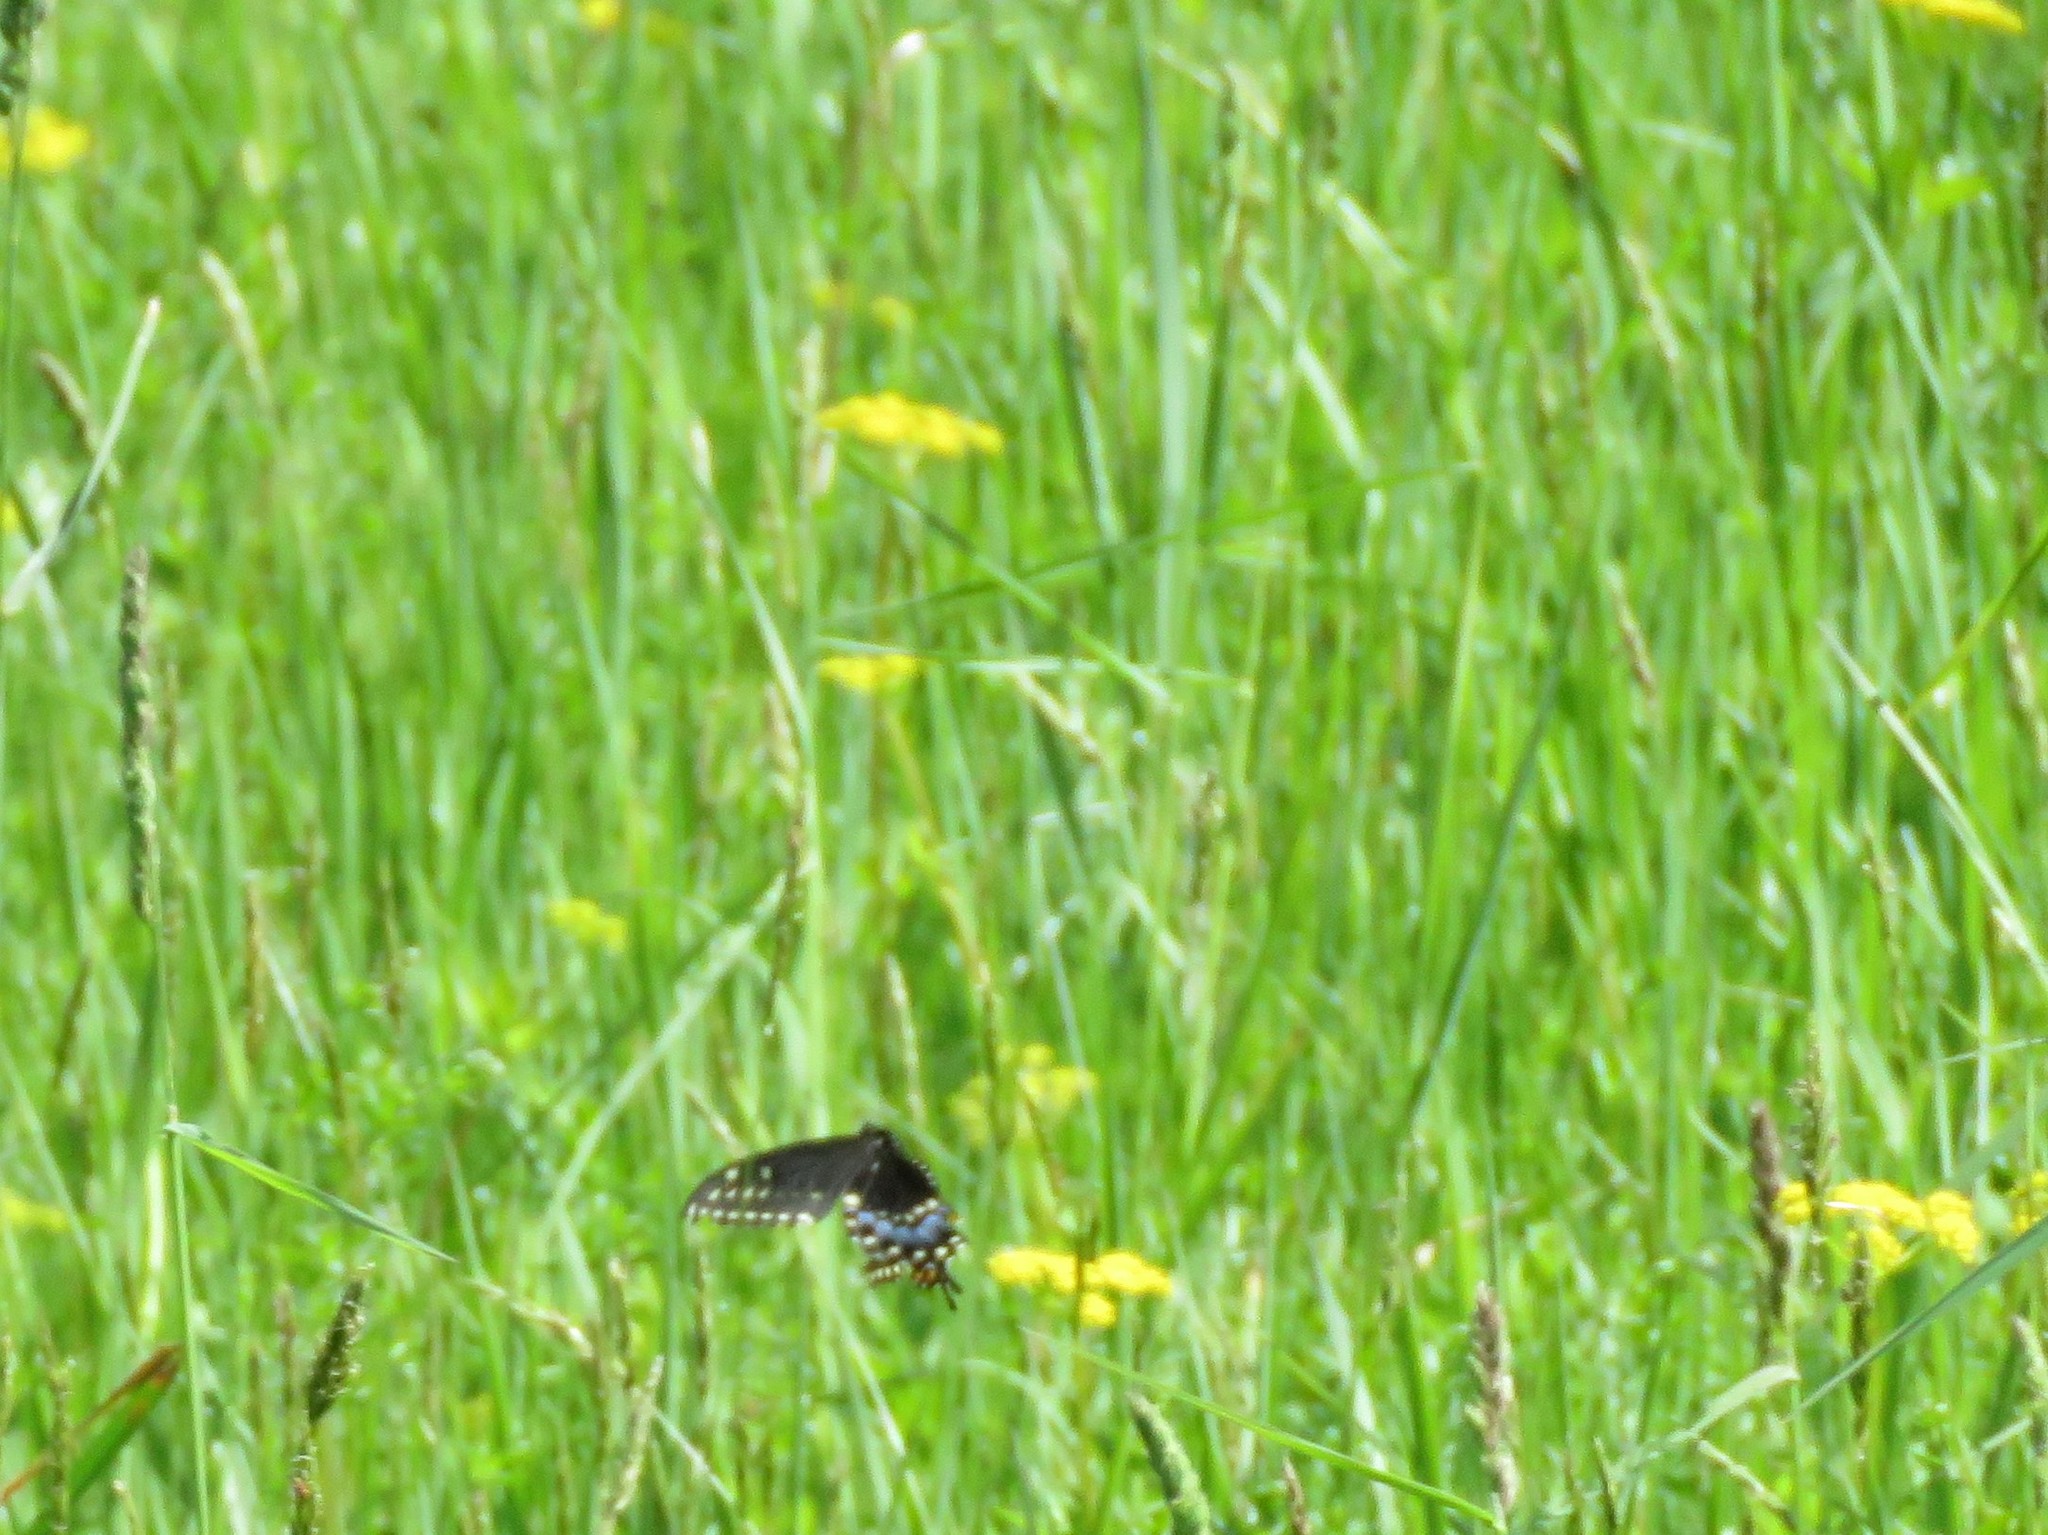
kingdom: Animalia
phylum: Arthropoda
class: Insecta
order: Lepidoptera
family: Papilionidae
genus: Papilio
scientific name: Papilio polyxenes
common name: Black swallowtail
